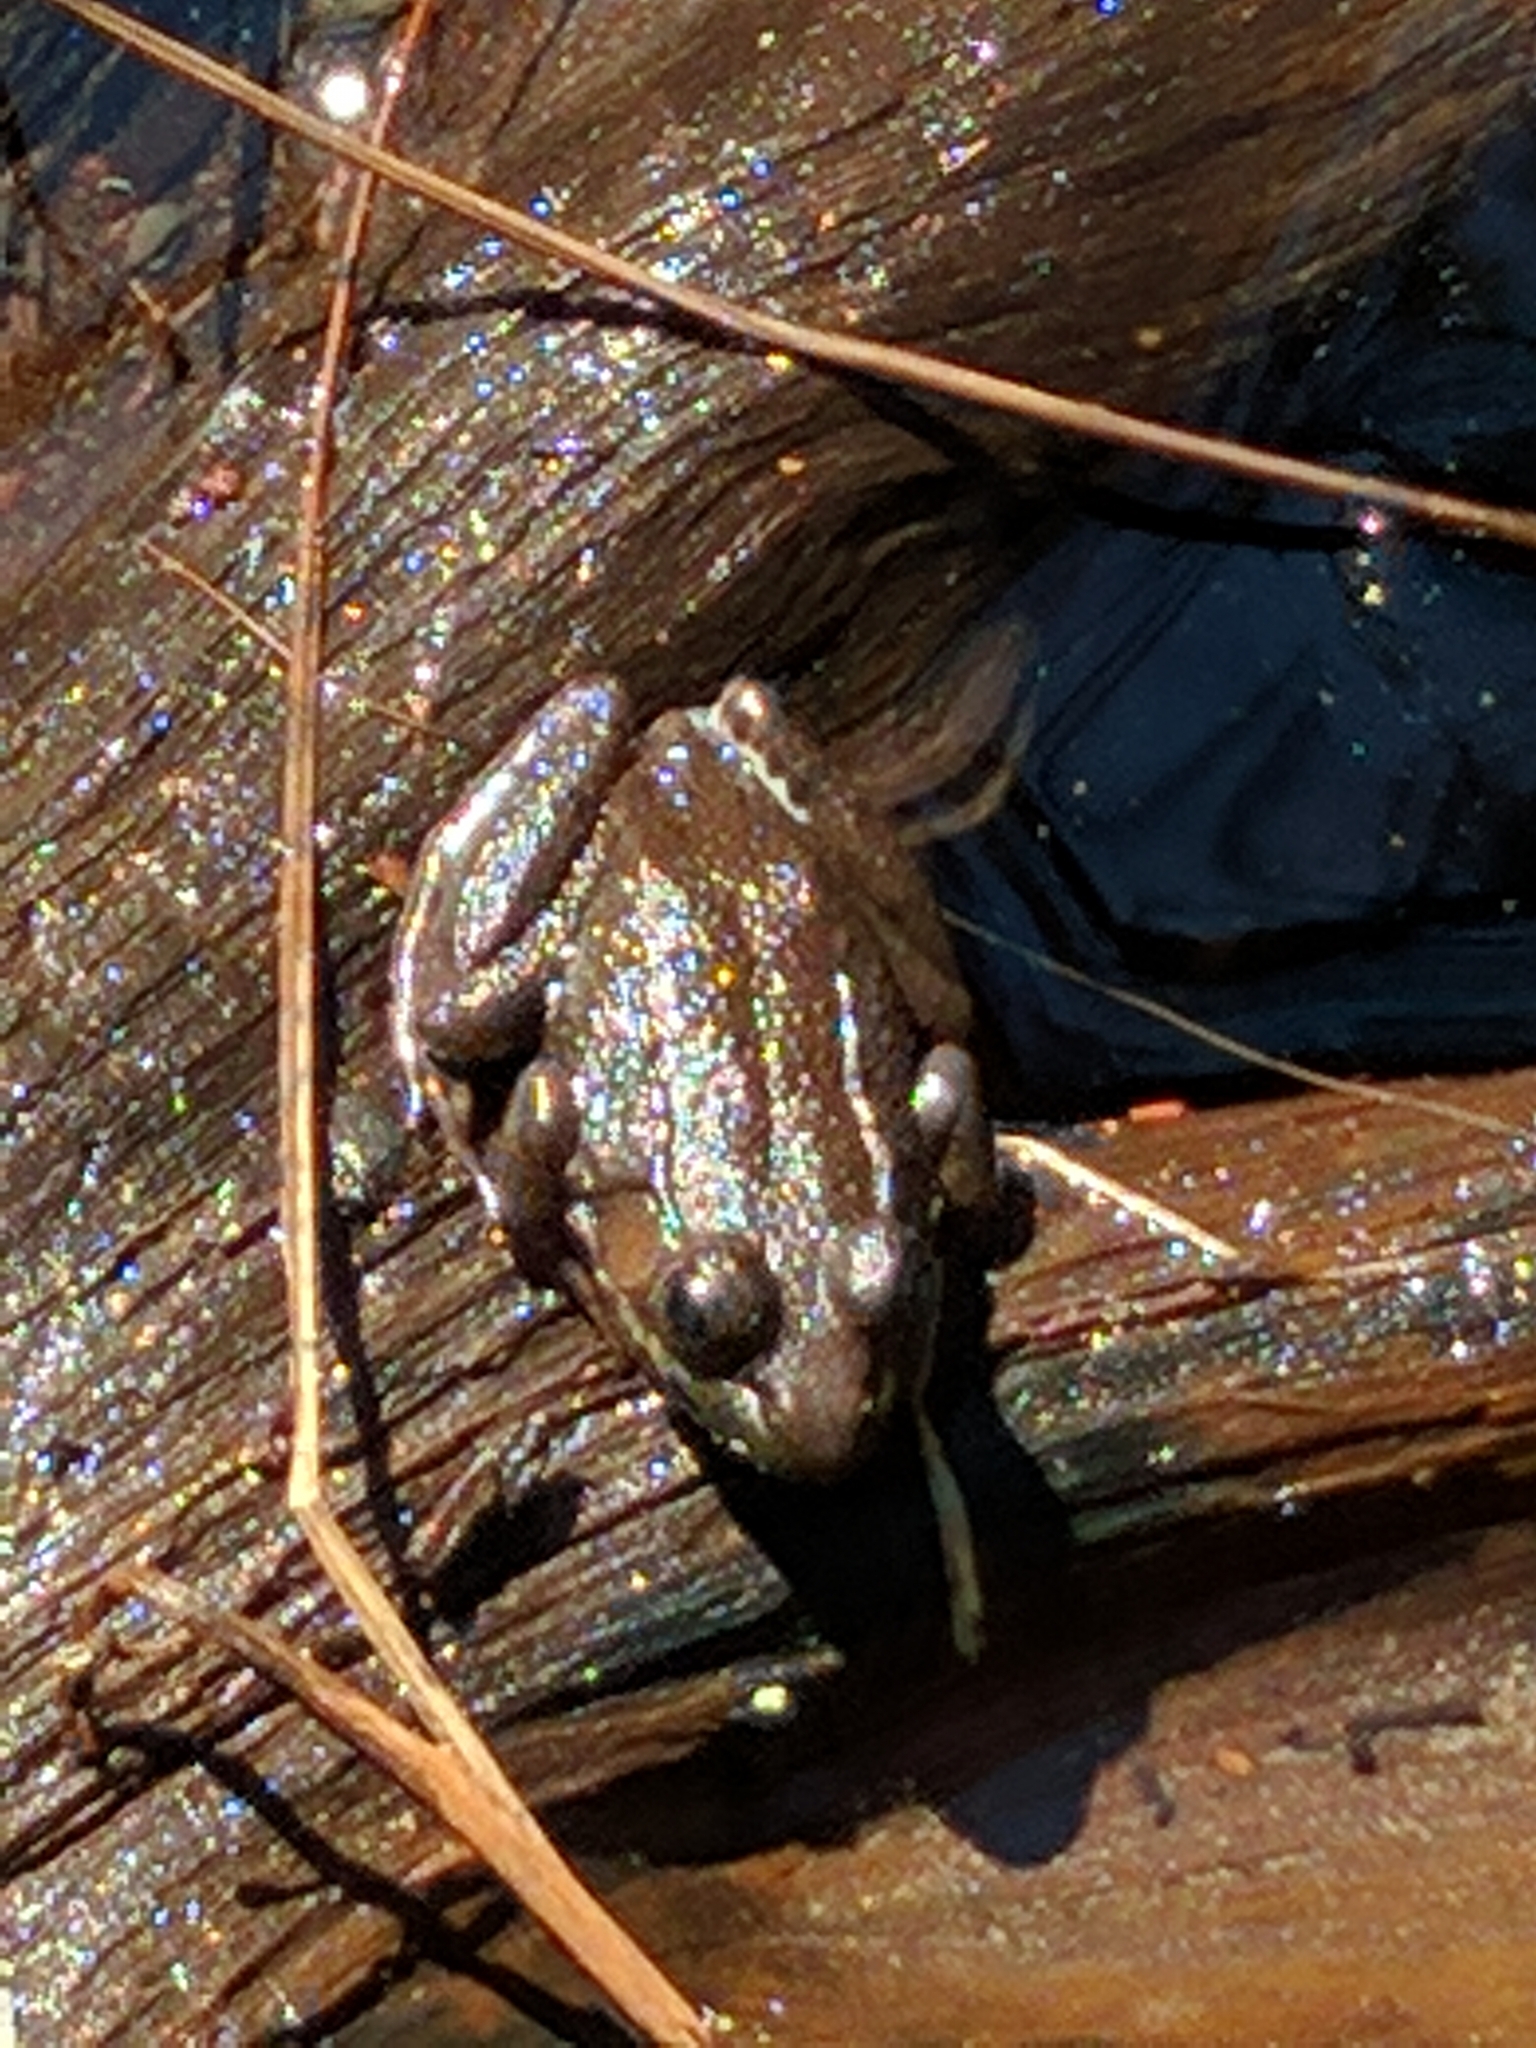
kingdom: Animalia
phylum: Chordata
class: Amphibia
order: Anura
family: Ranidae
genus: Lithobates
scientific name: Lithobates clamitans
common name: Green frog
